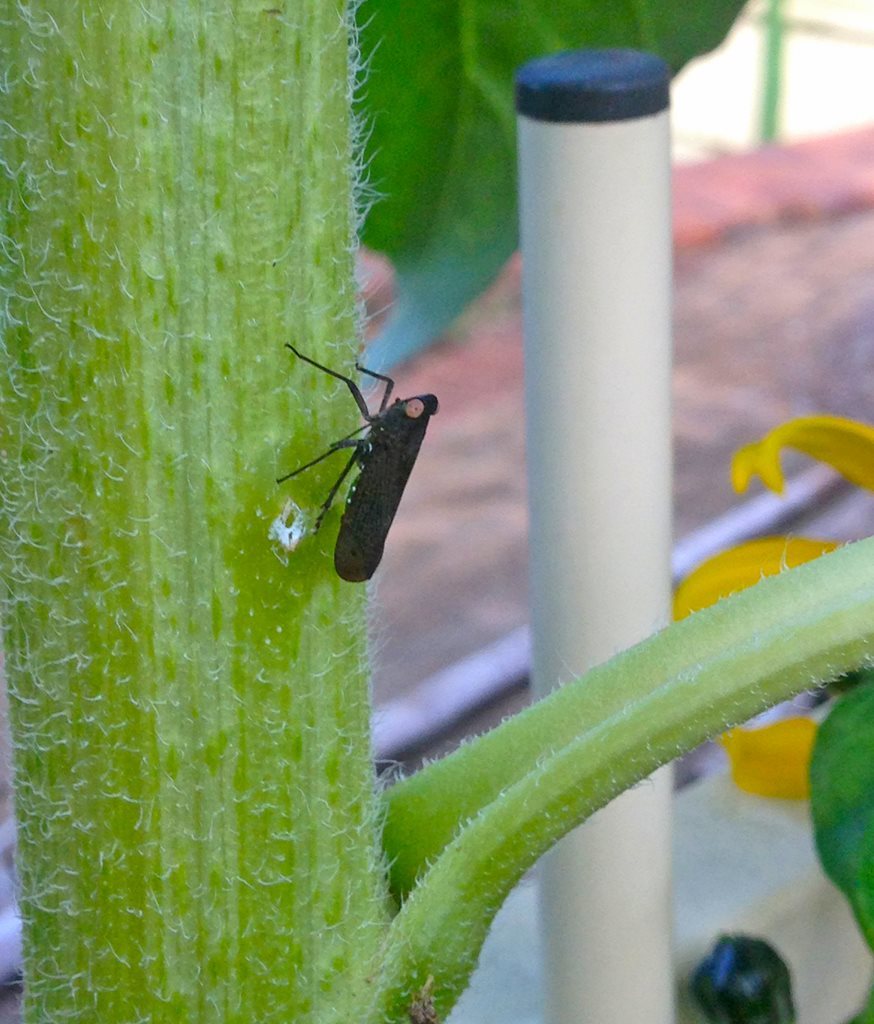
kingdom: Animalia
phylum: Arthropoda
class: Insecta
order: Hemiptera
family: Fulgoridae
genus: Desudaba
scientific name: Desudaba psittacus
